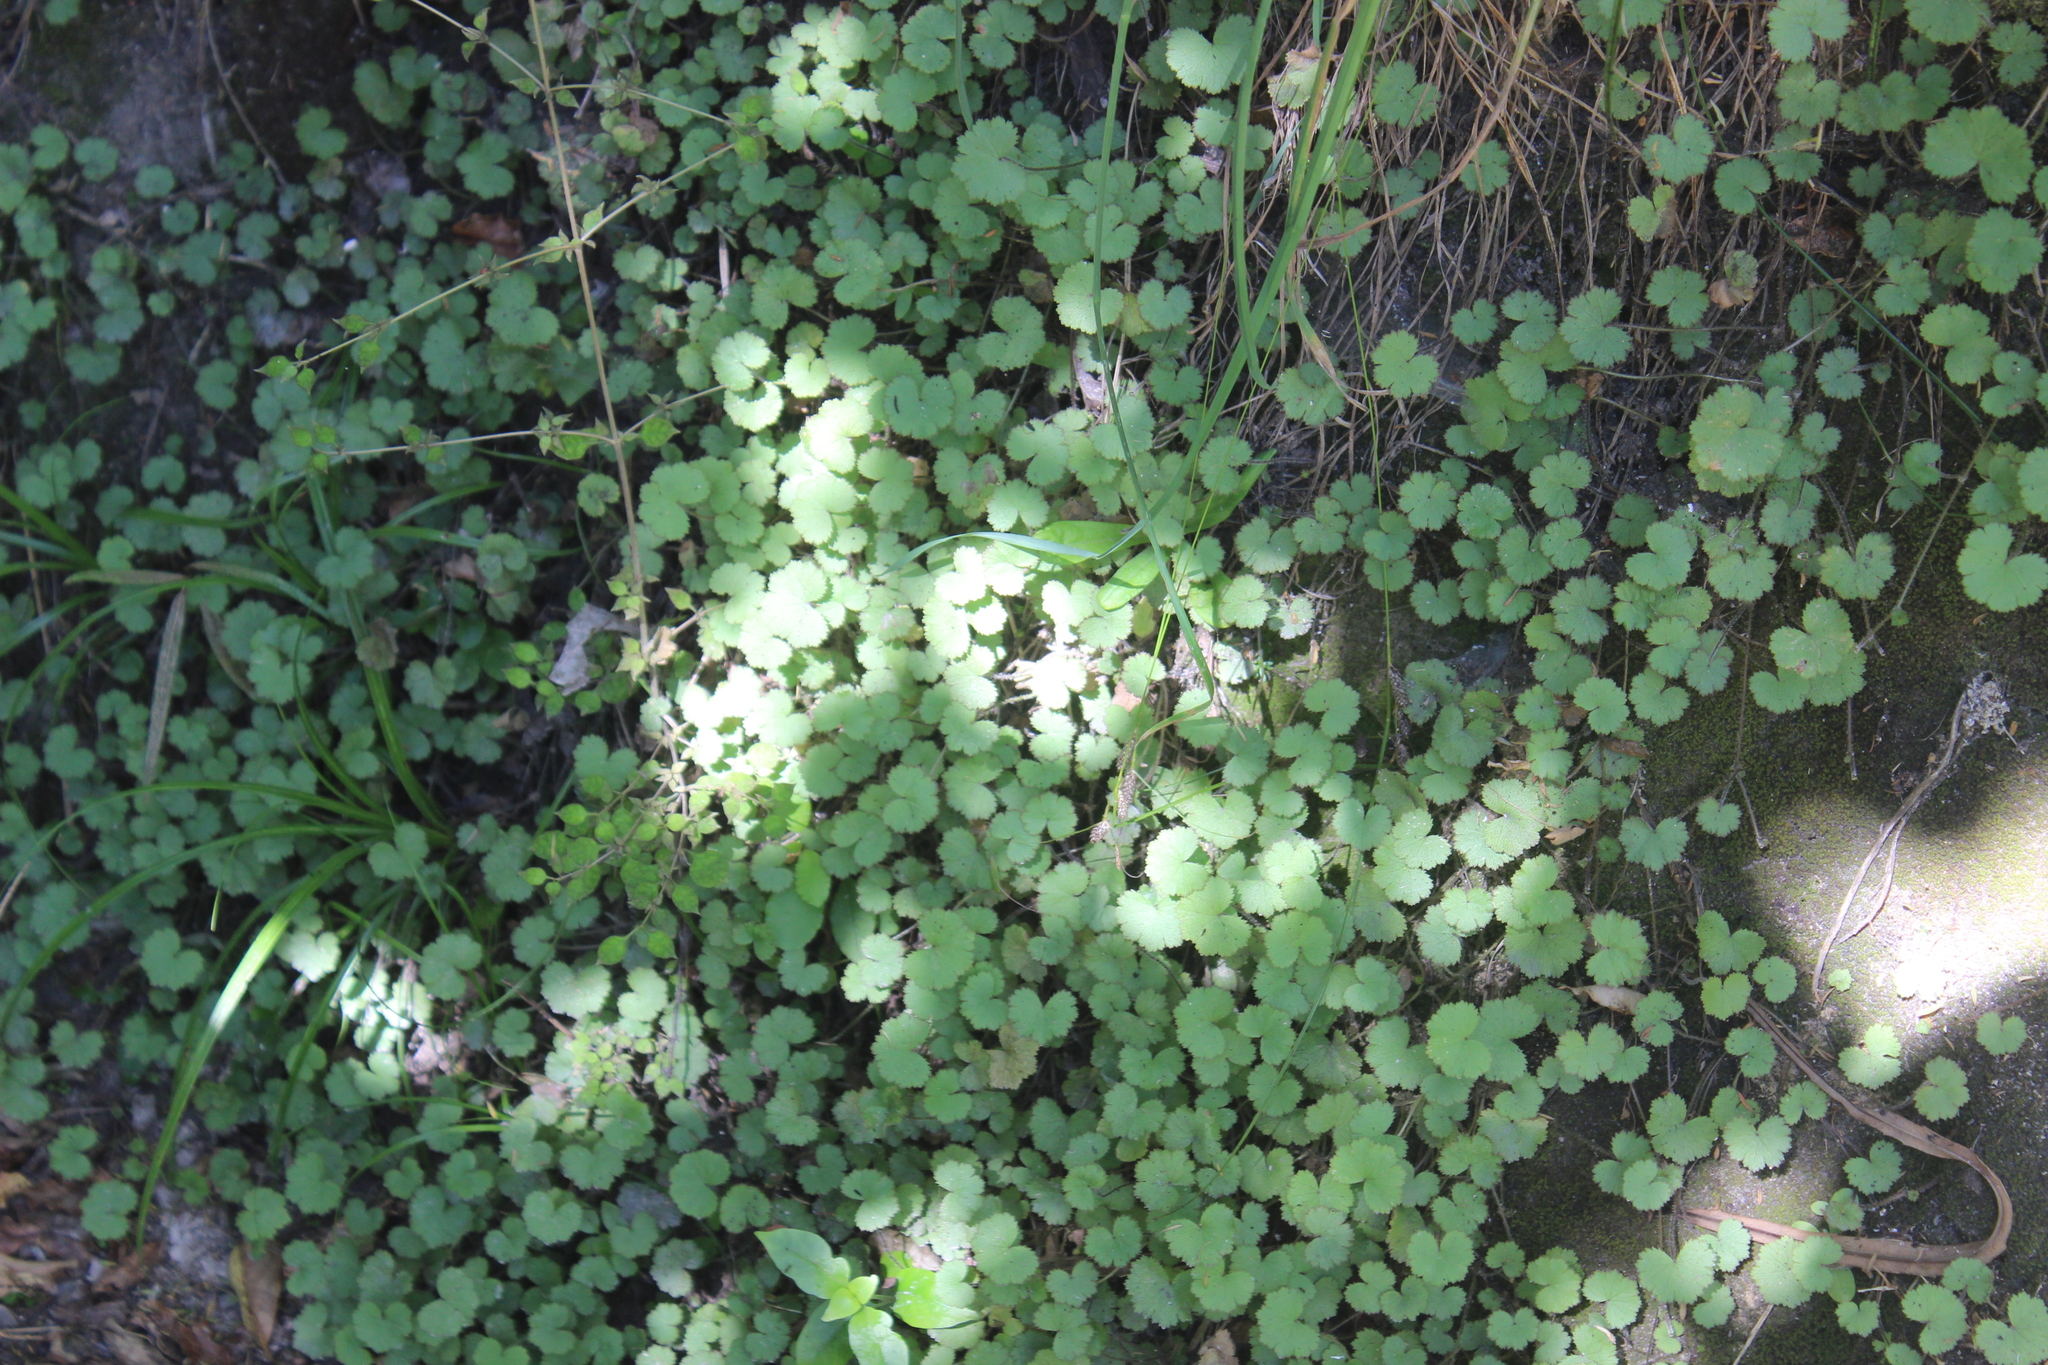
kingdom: Plantae
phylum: Tracheophyta
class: Magnoliopsida
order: Apiales
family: Araliaceae
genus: Hydrocotyle
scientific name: Hydrocotyle moschata
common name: Hairy pennywort
